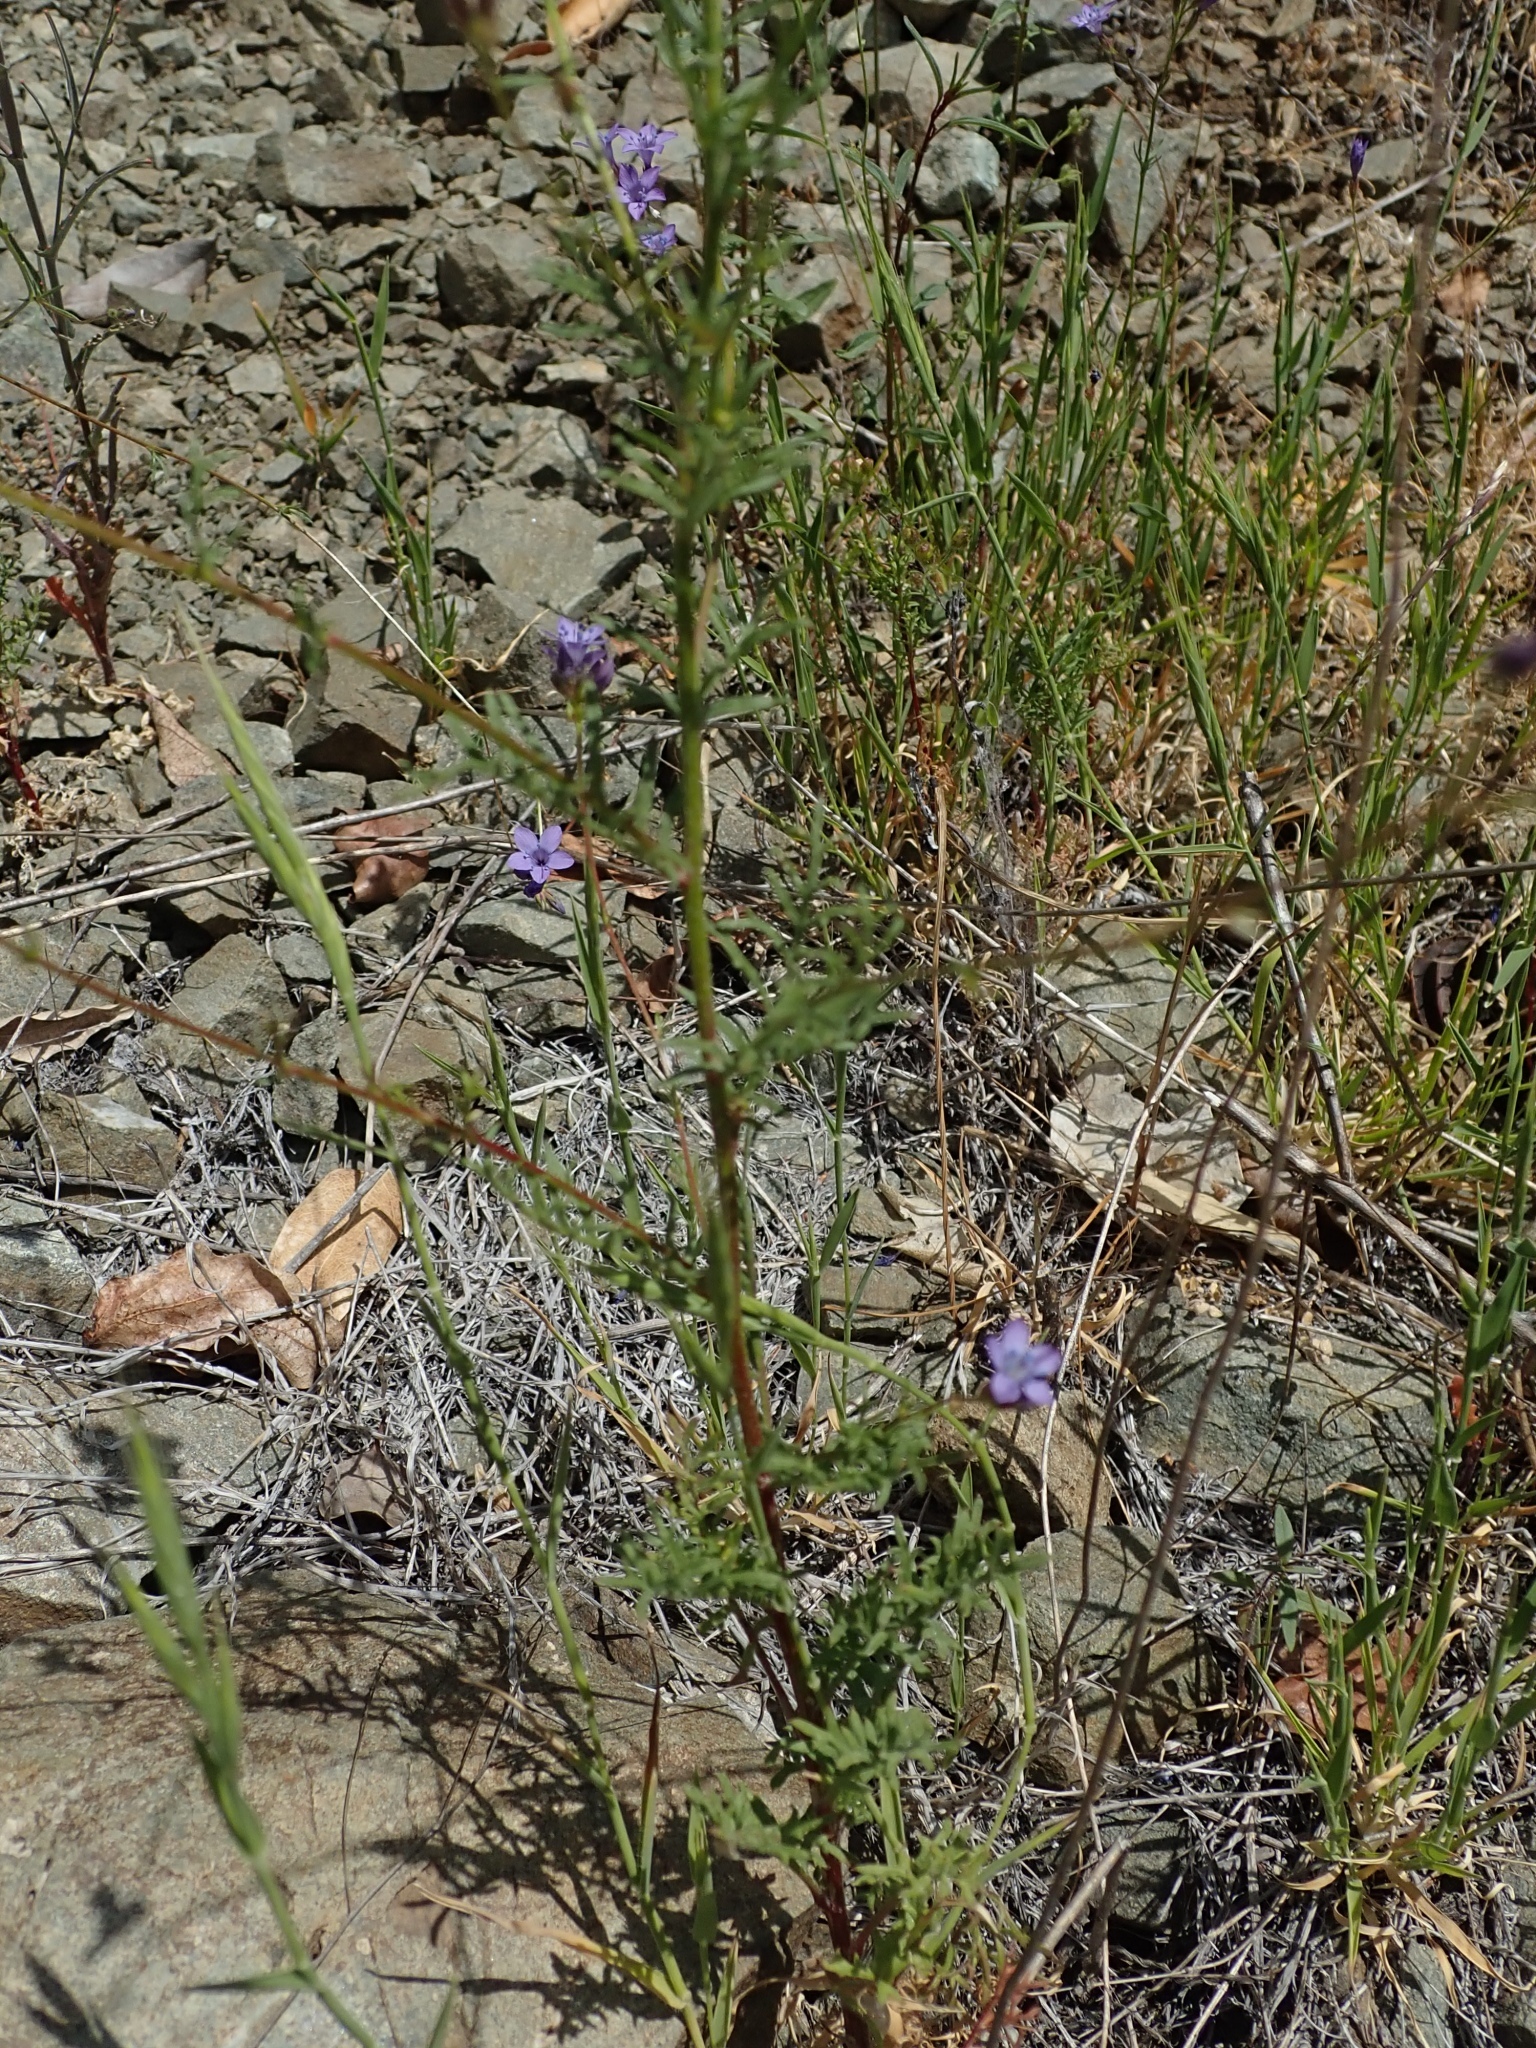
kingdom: Plantae
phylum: Tracheophyta
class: Magnoliopsida
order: Ericales
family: Polemoniaceae
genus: Gilia
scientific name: Gilia achilleifolia
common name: California gily-flower
